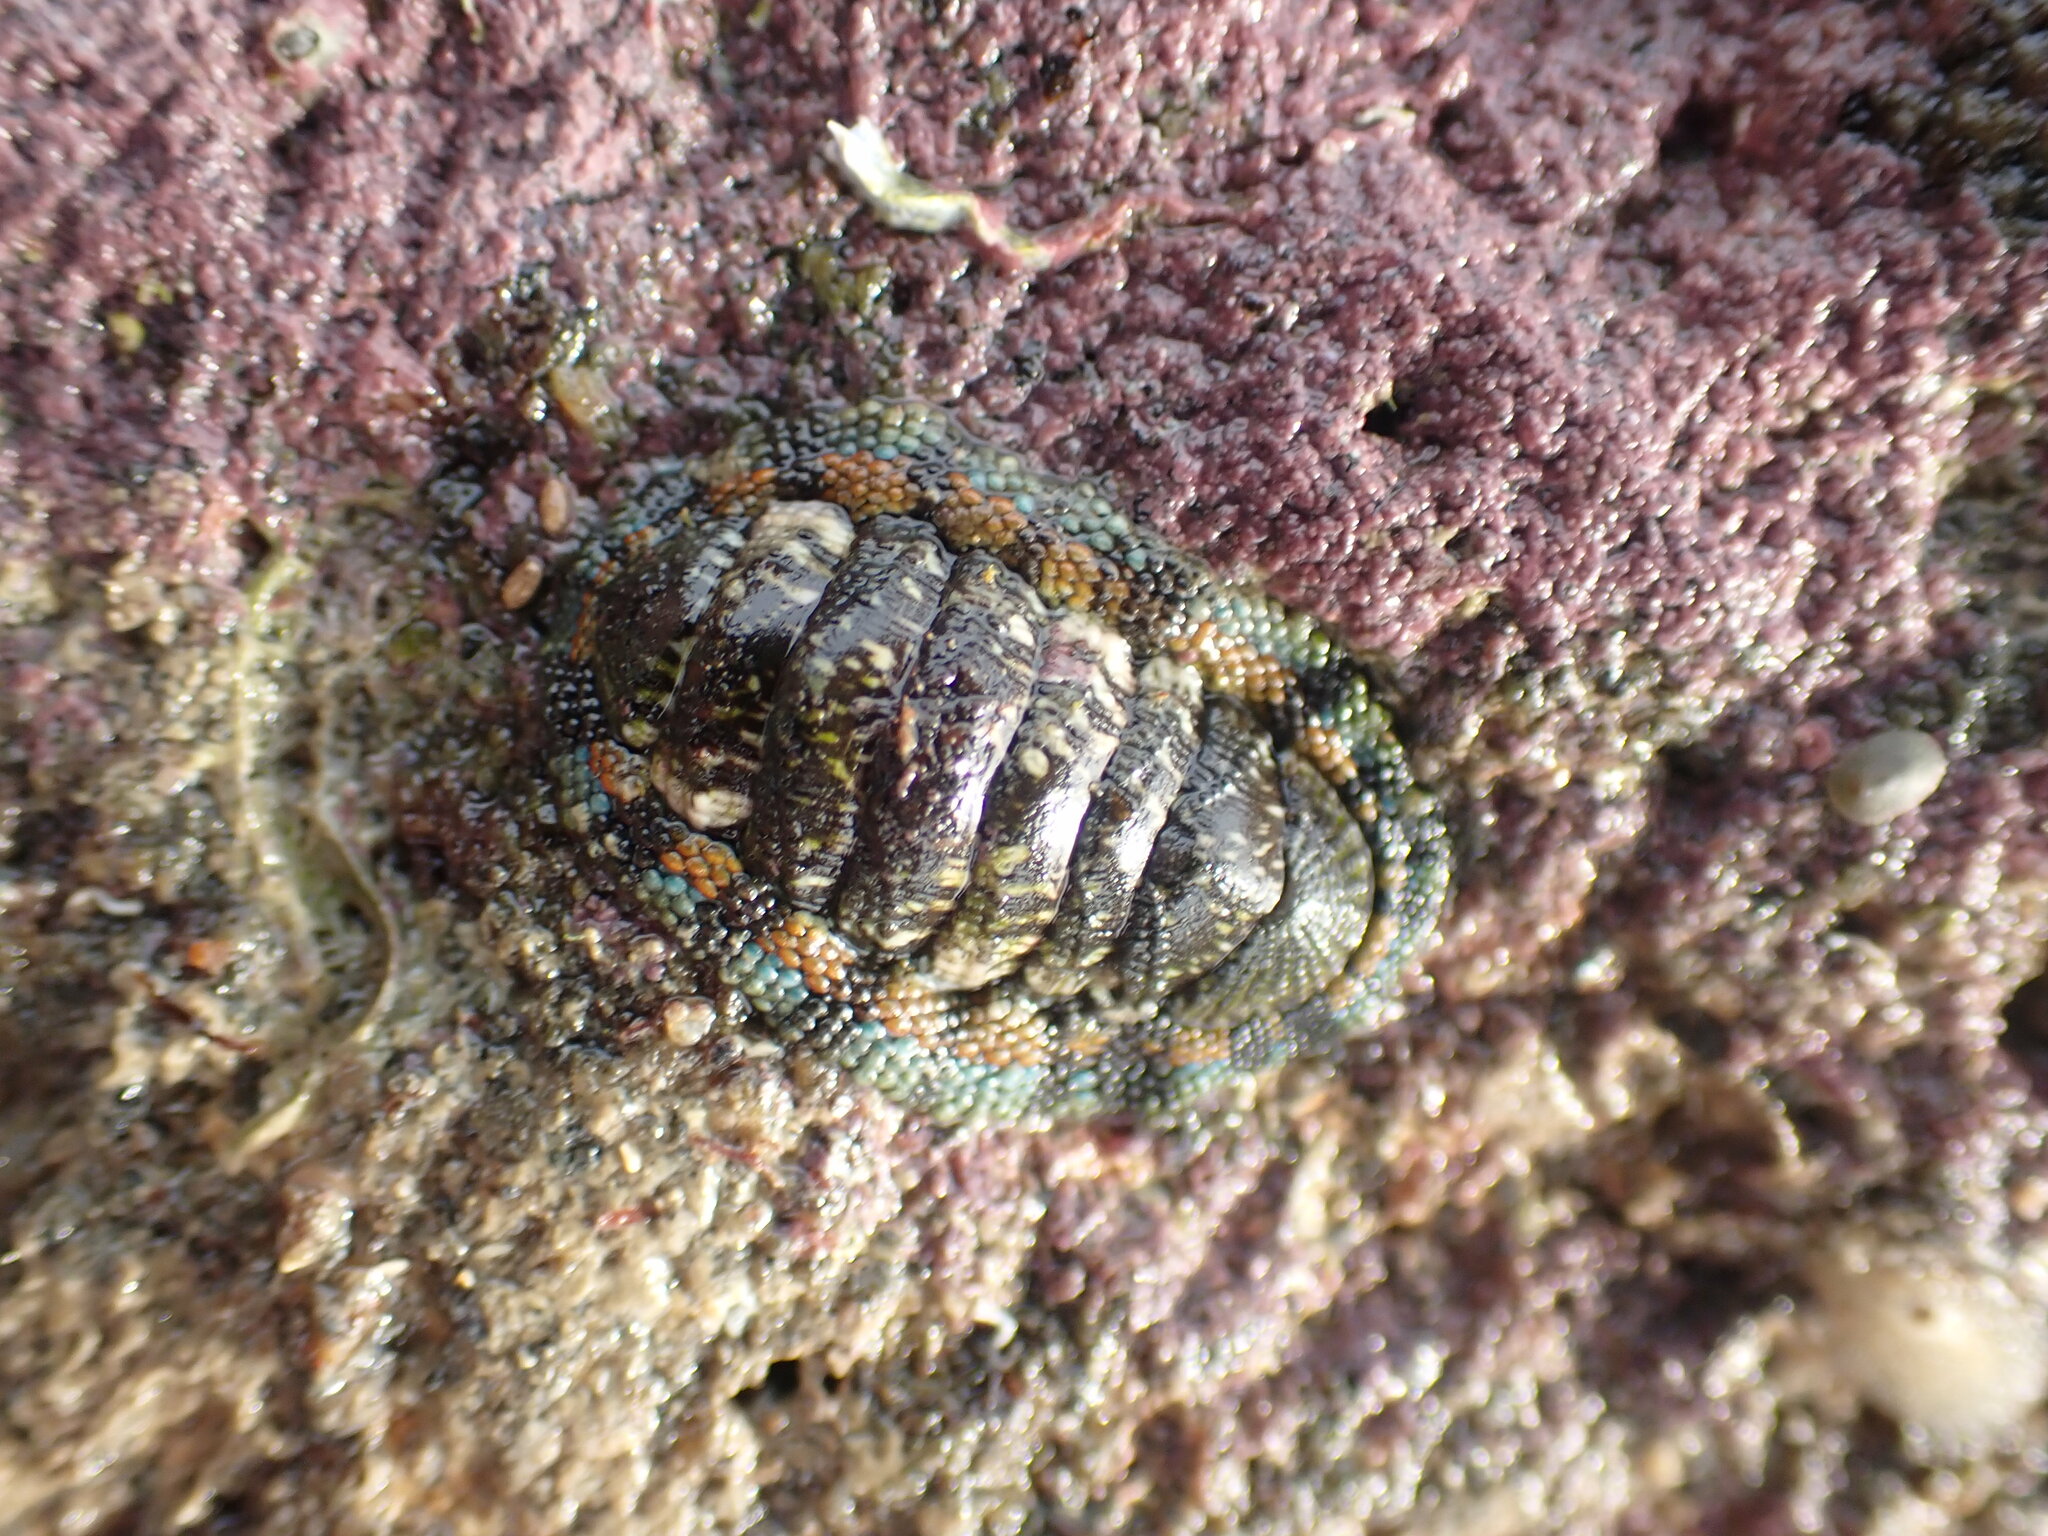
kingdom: Animalia
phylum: Mollusca
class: Polyplacophora
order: Chitonida
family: Chitonidae
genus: Sypharochiton
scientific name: Sypharochiton sinclairi
